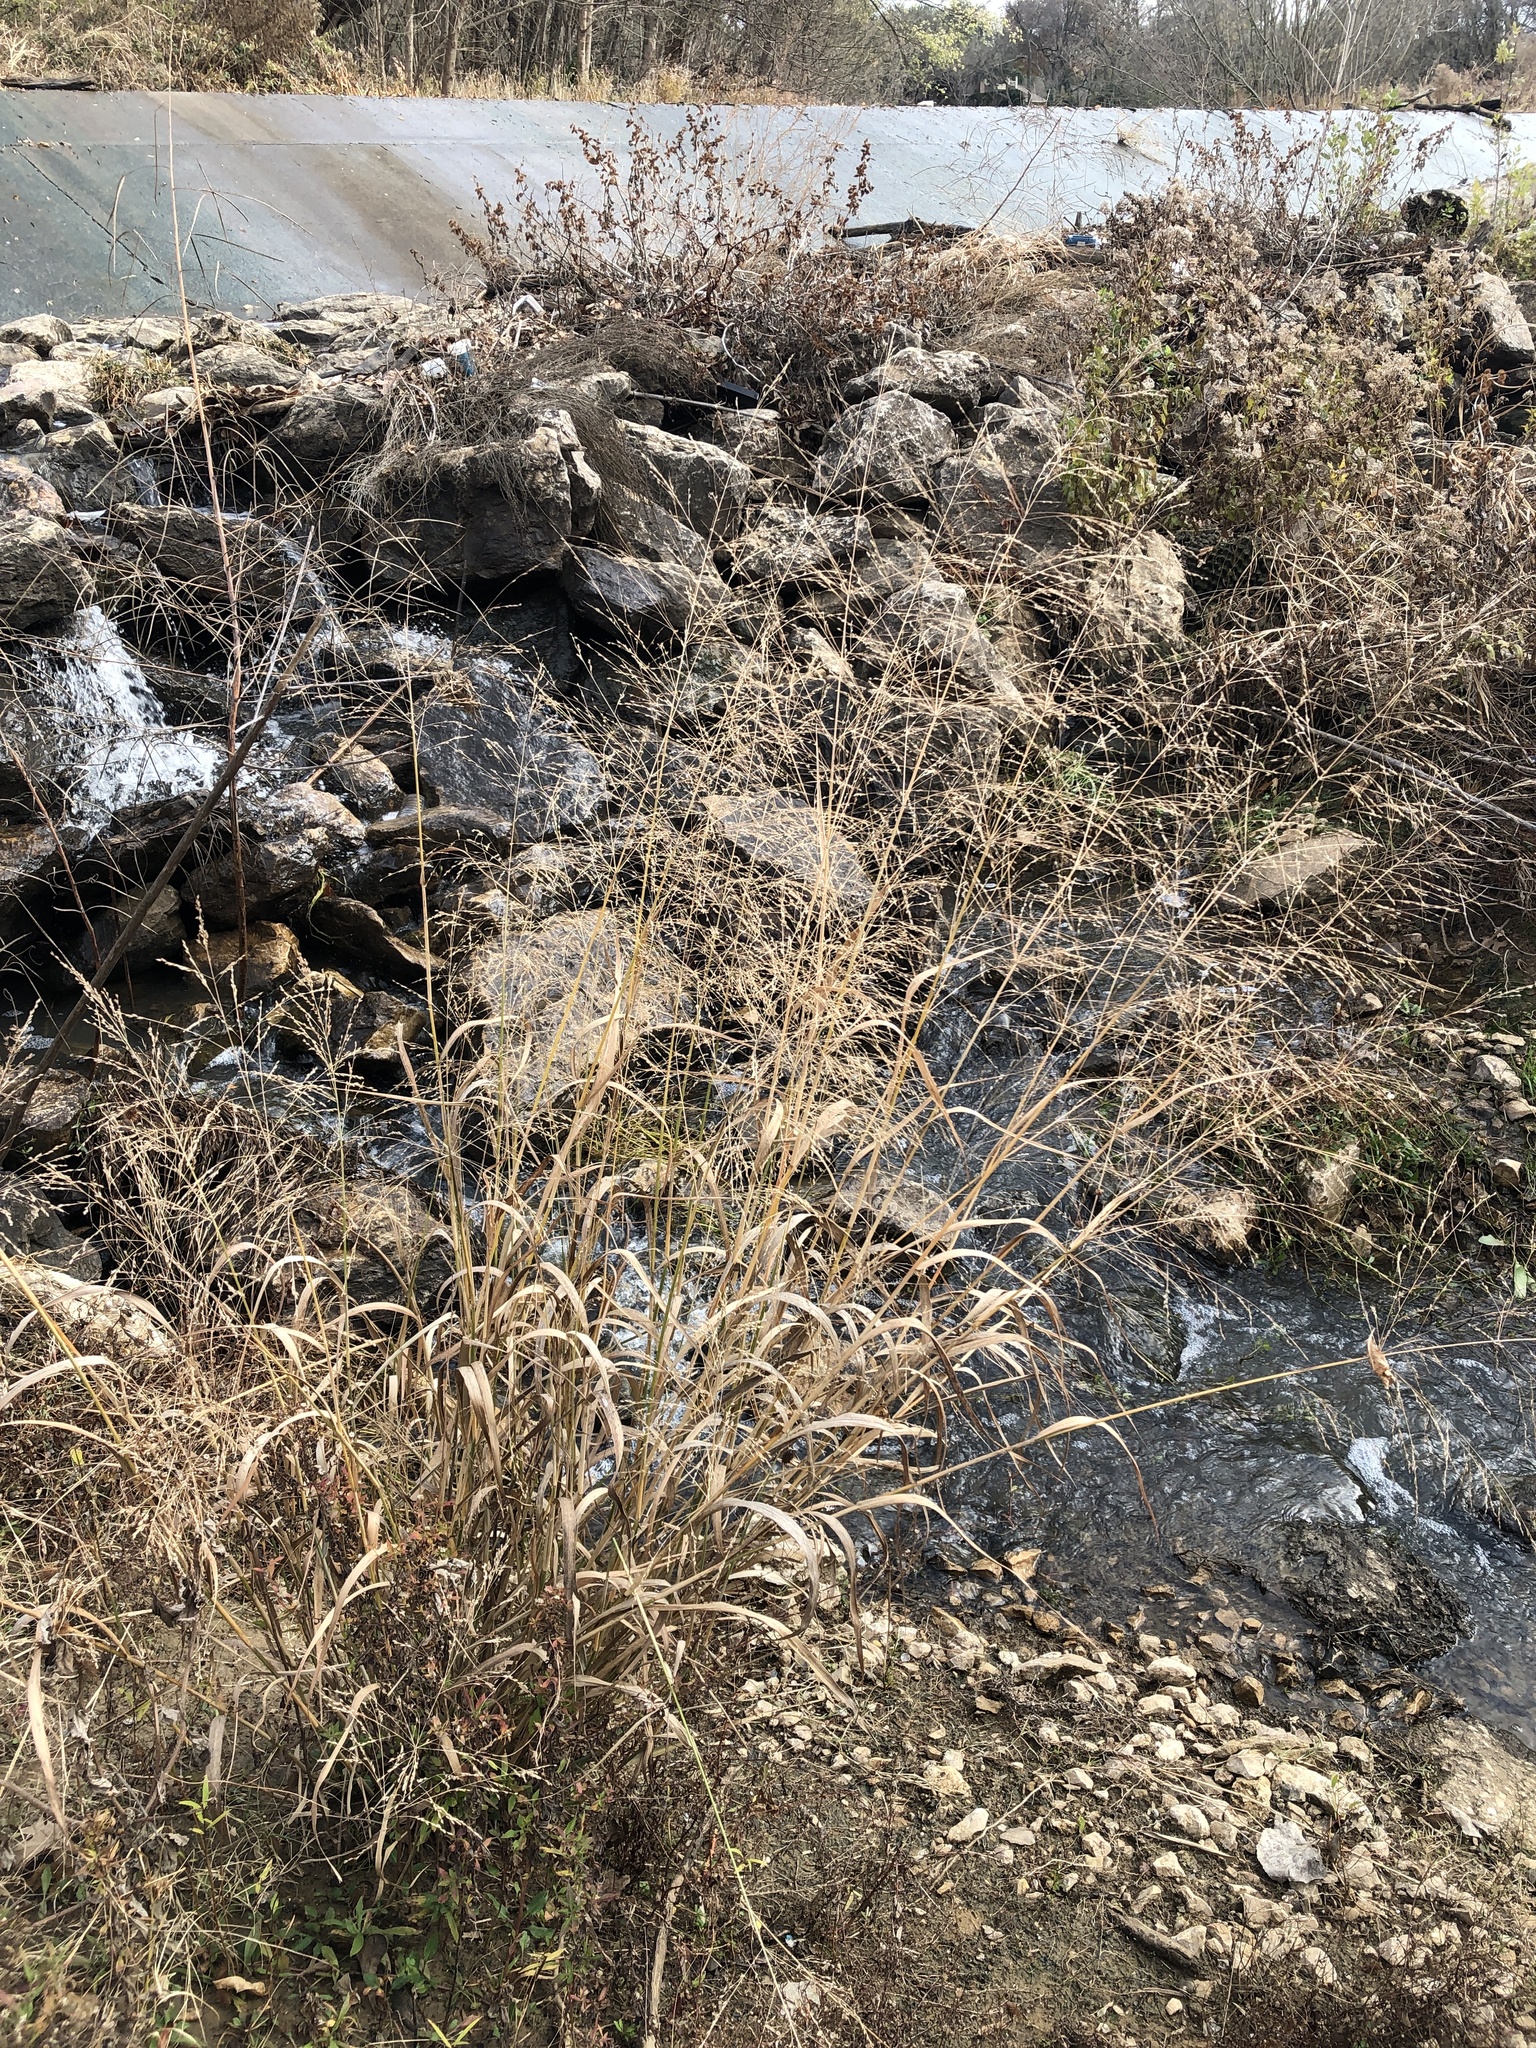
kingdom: Plantae
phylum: Tracheophyta
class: Liliopsida
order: Poales
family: Poaceae
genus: Panicum
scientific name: Panicum virgatum
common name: Switchgrass
